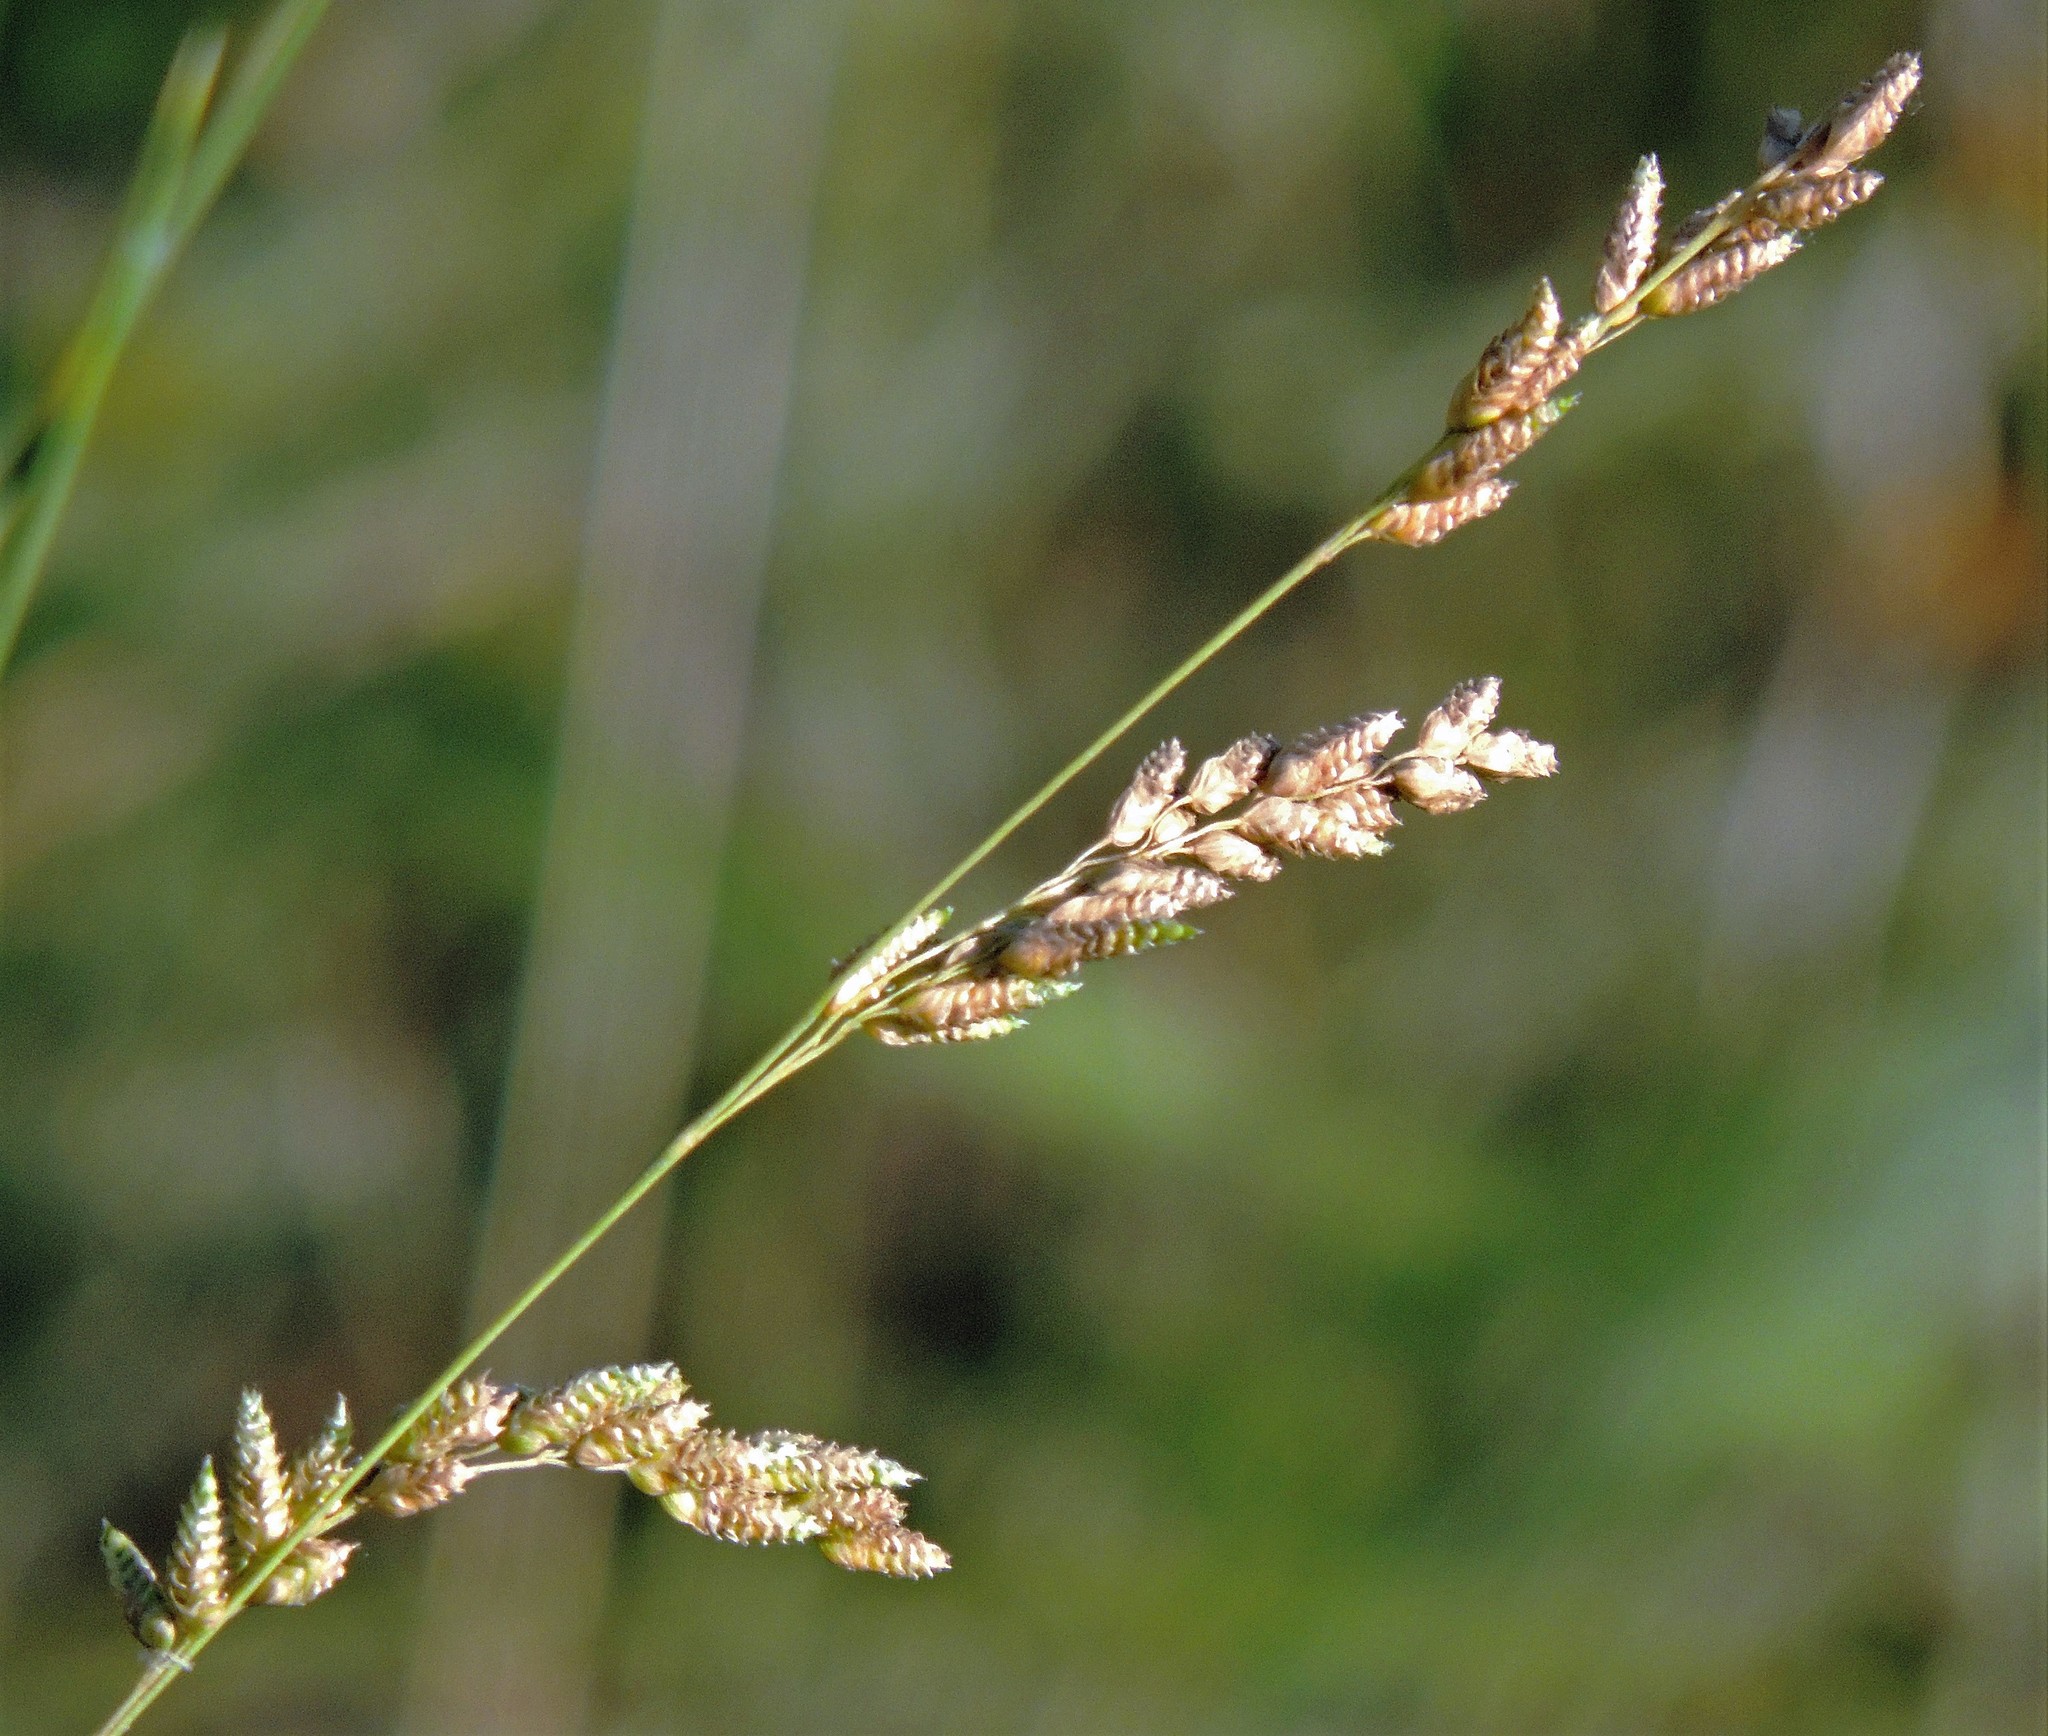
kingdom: Plantae
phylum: Tracheophyta
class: Liliopsida
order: Poales
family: Poaceae
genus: Chascolytrum
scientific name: Chascolytrum subaristatum
